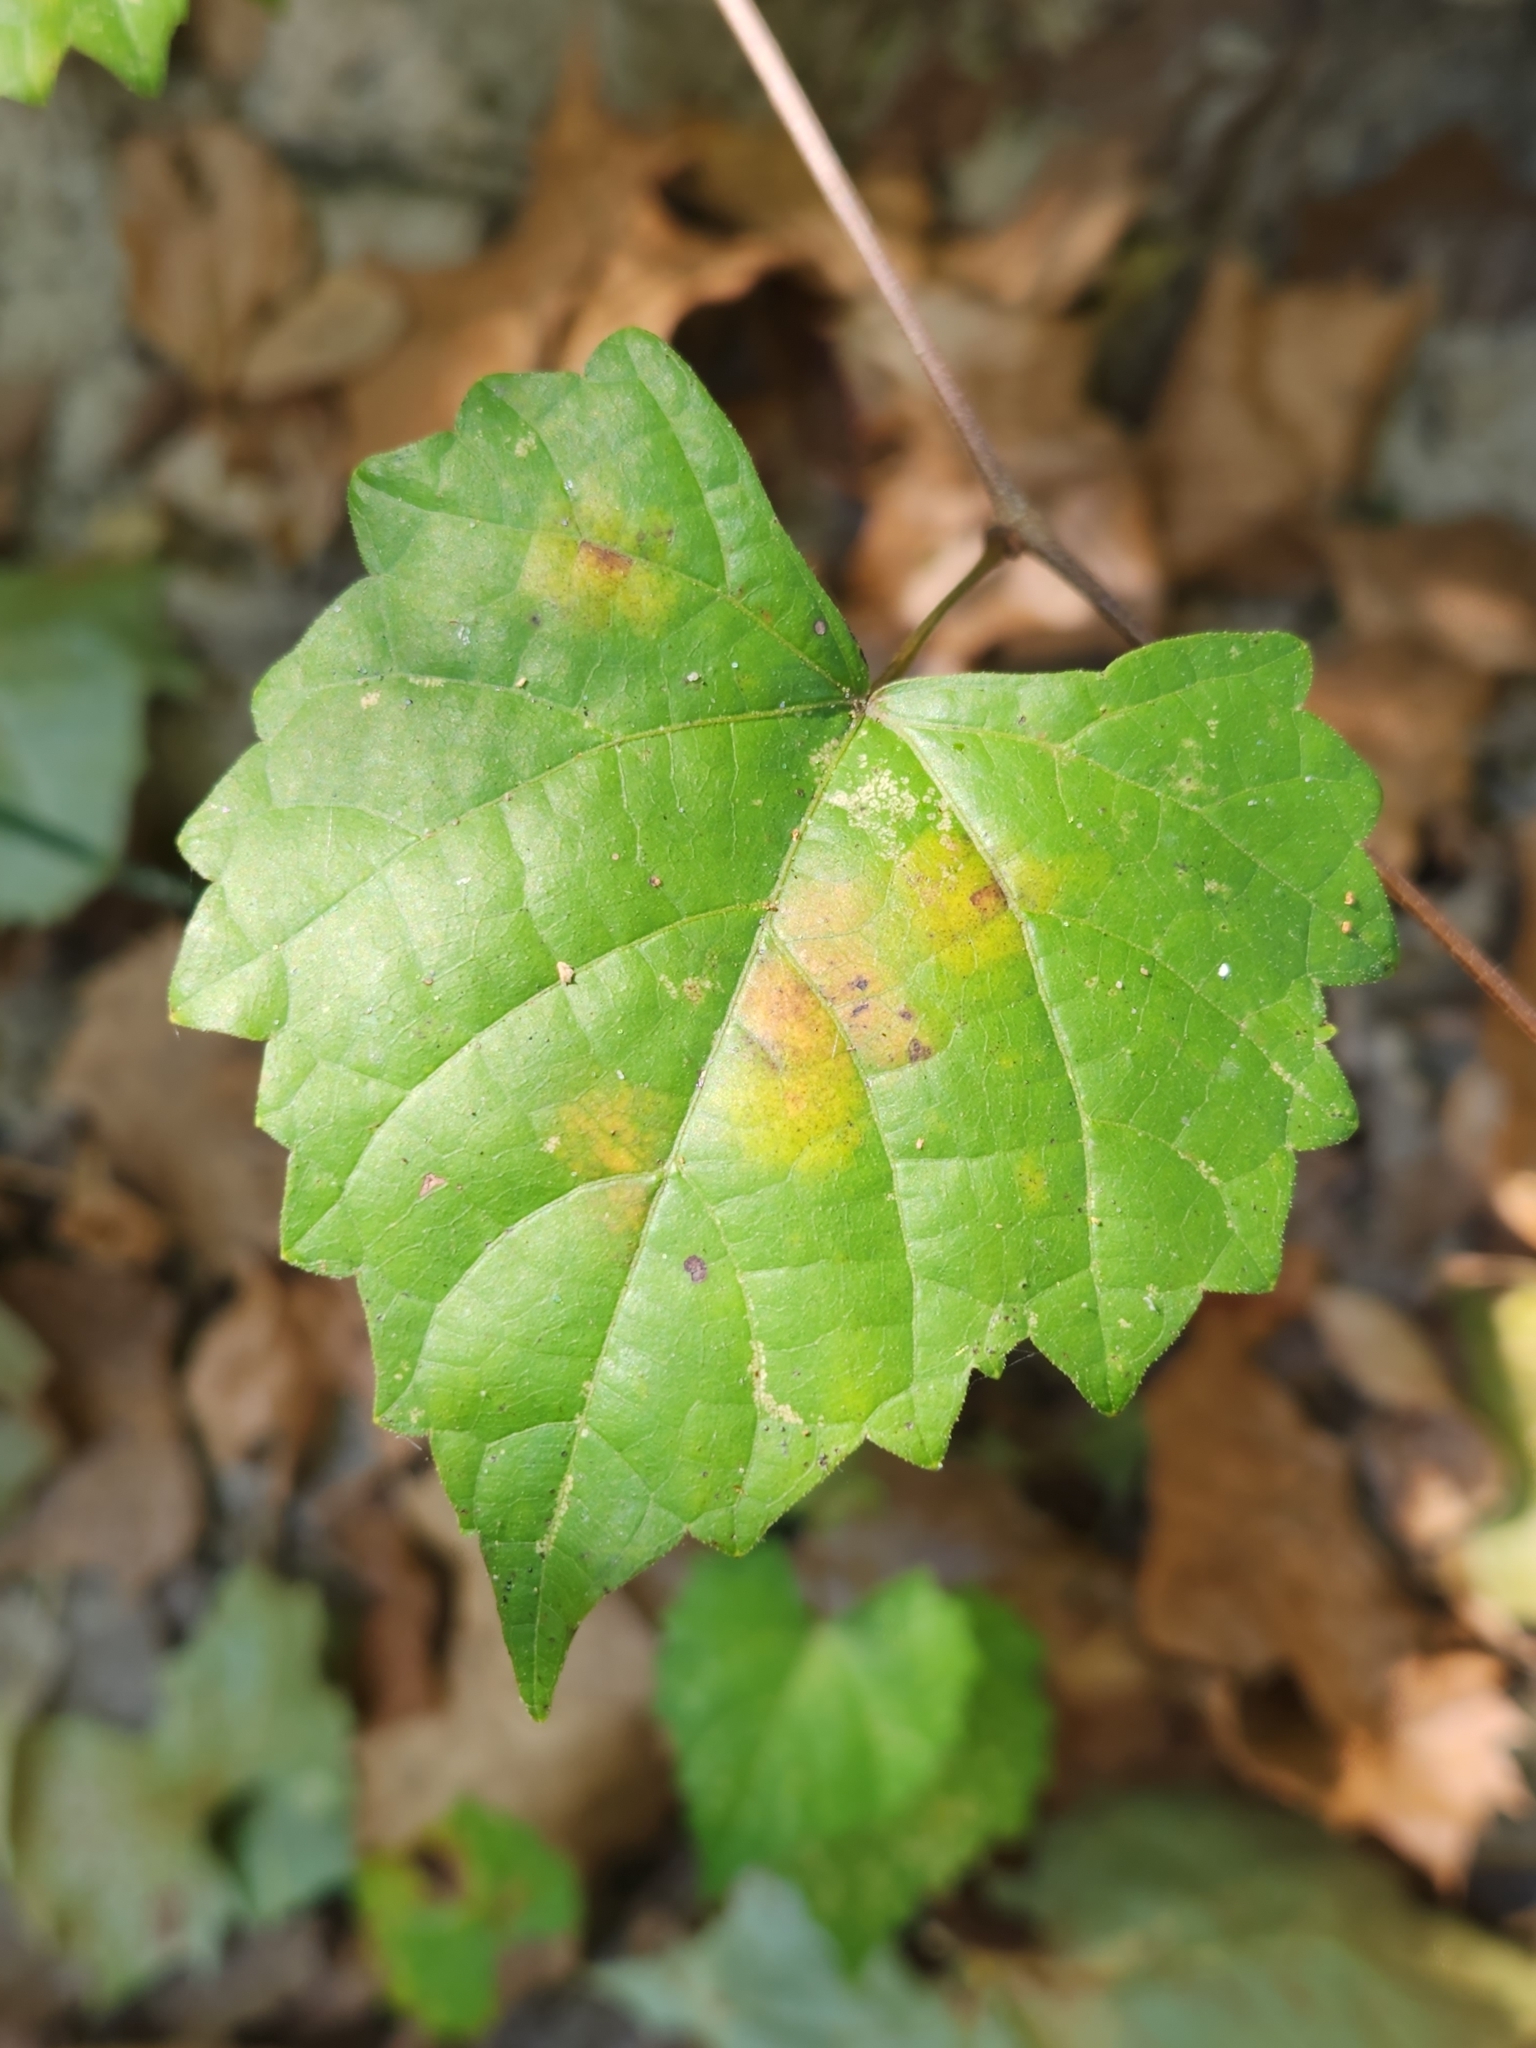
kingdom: Plantae
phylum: Tracheophyta
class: Magnoliopsida
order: Vitales
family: Vitaceae
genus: Vitis
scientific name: Vitis rotundifolia
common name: Muscadine grape
